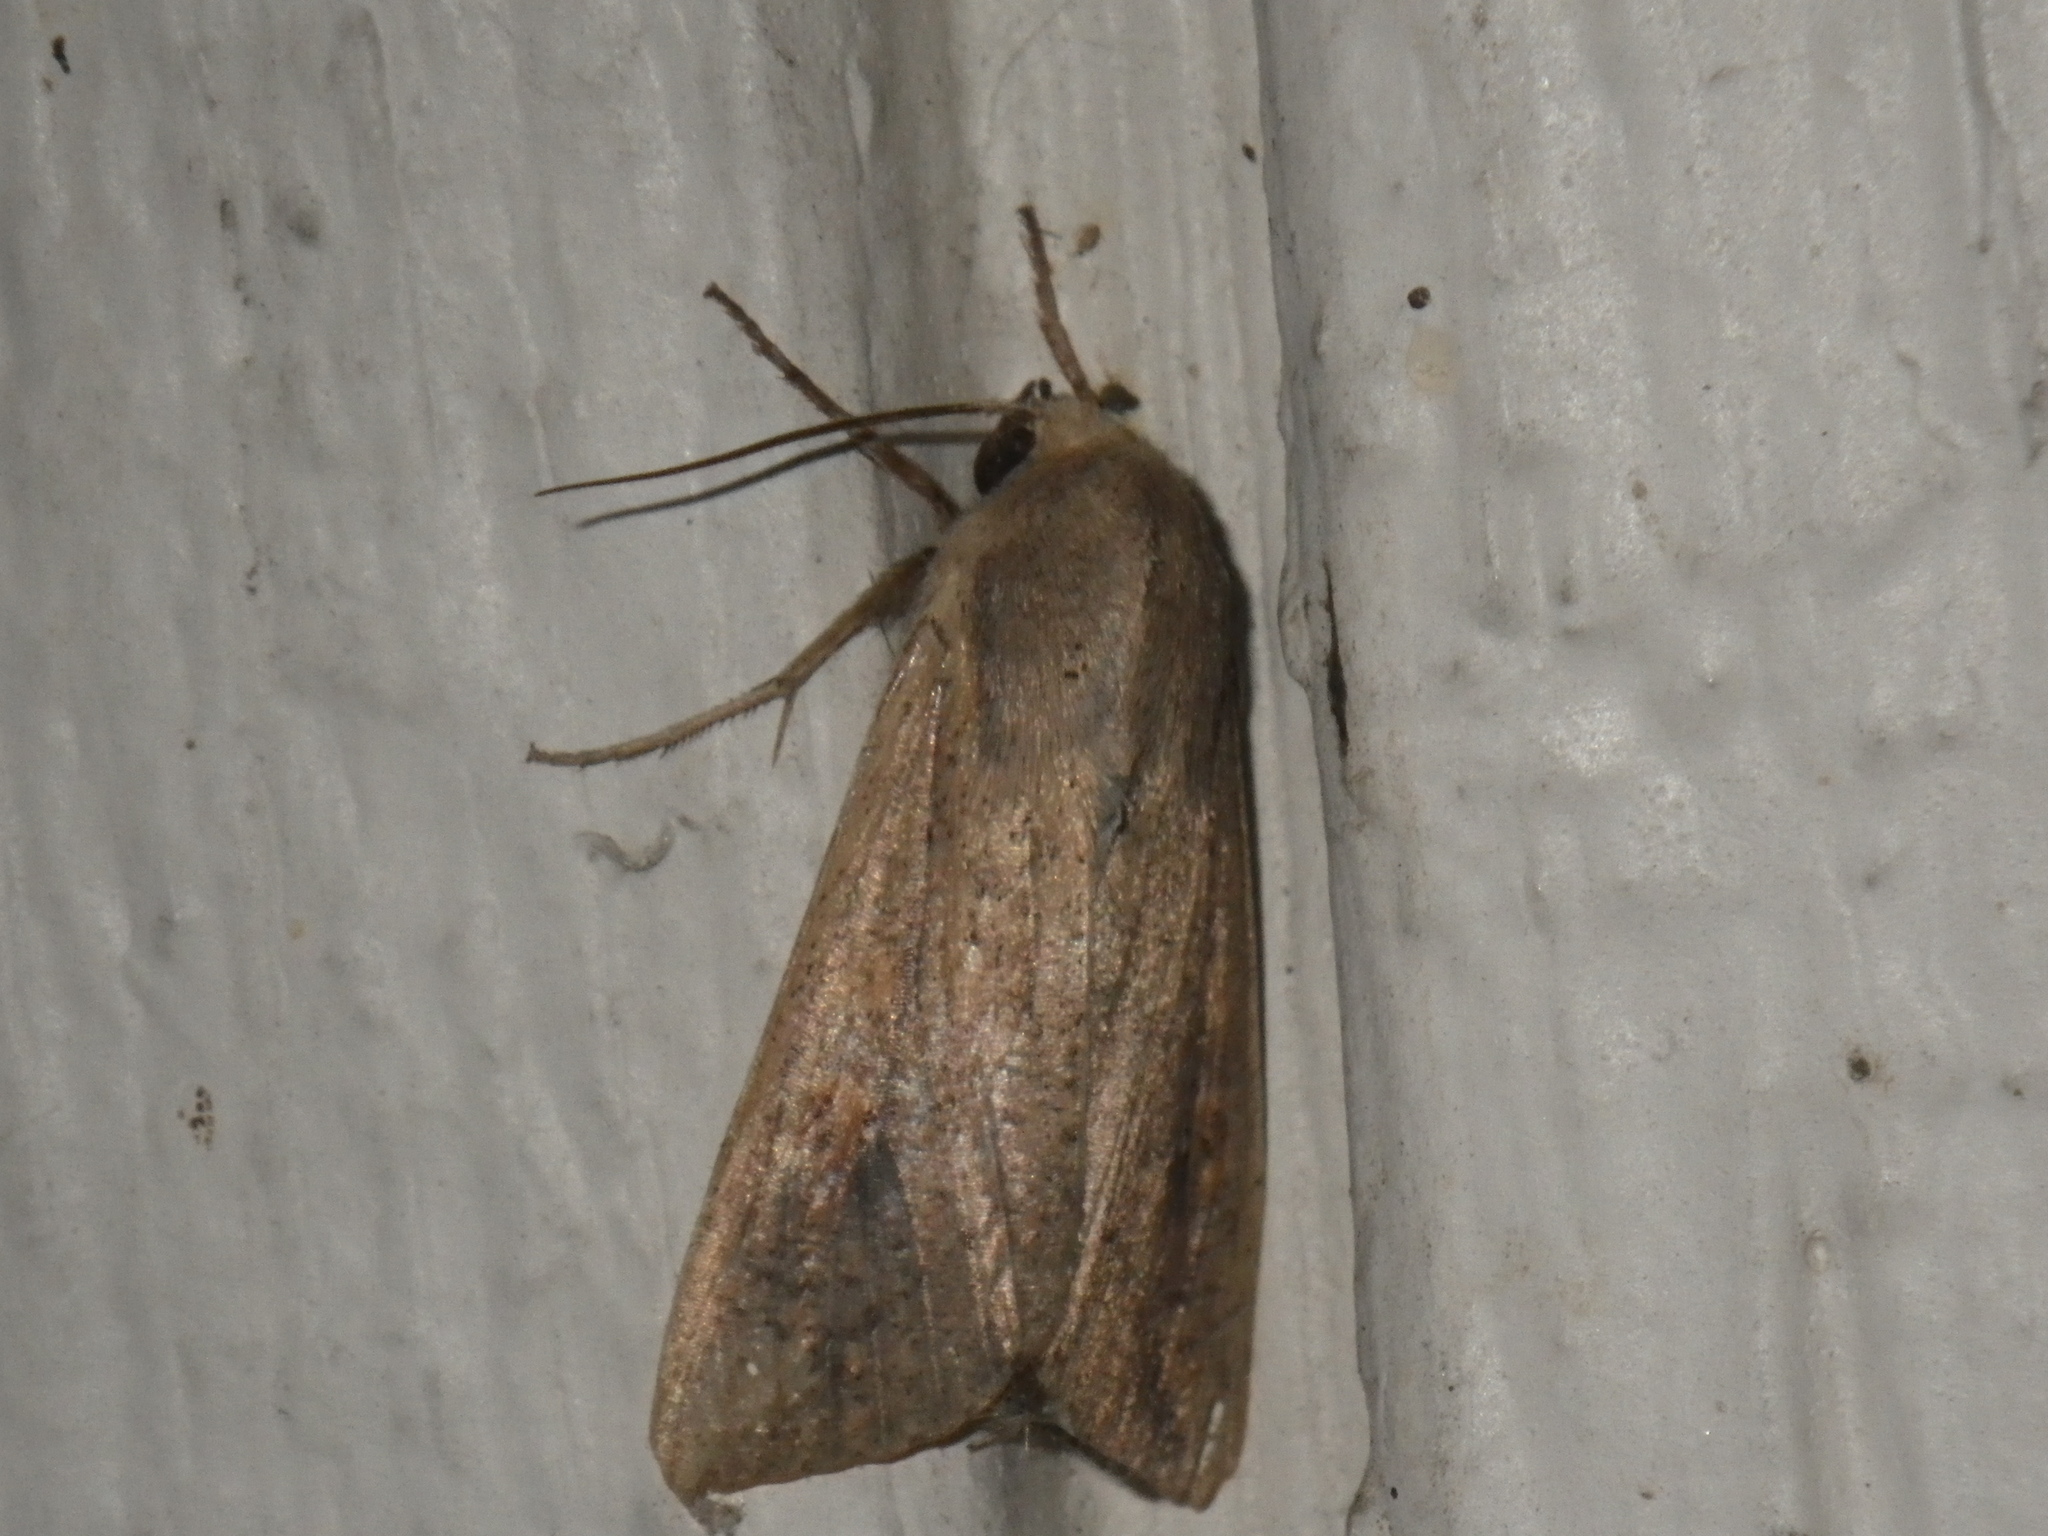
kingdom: Animalia
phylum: Arthropoda
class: Insecta
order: Lepidoptera
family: Noctuidae
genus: Mythimna
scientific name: Mythimna unipuncta
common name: White-speck
